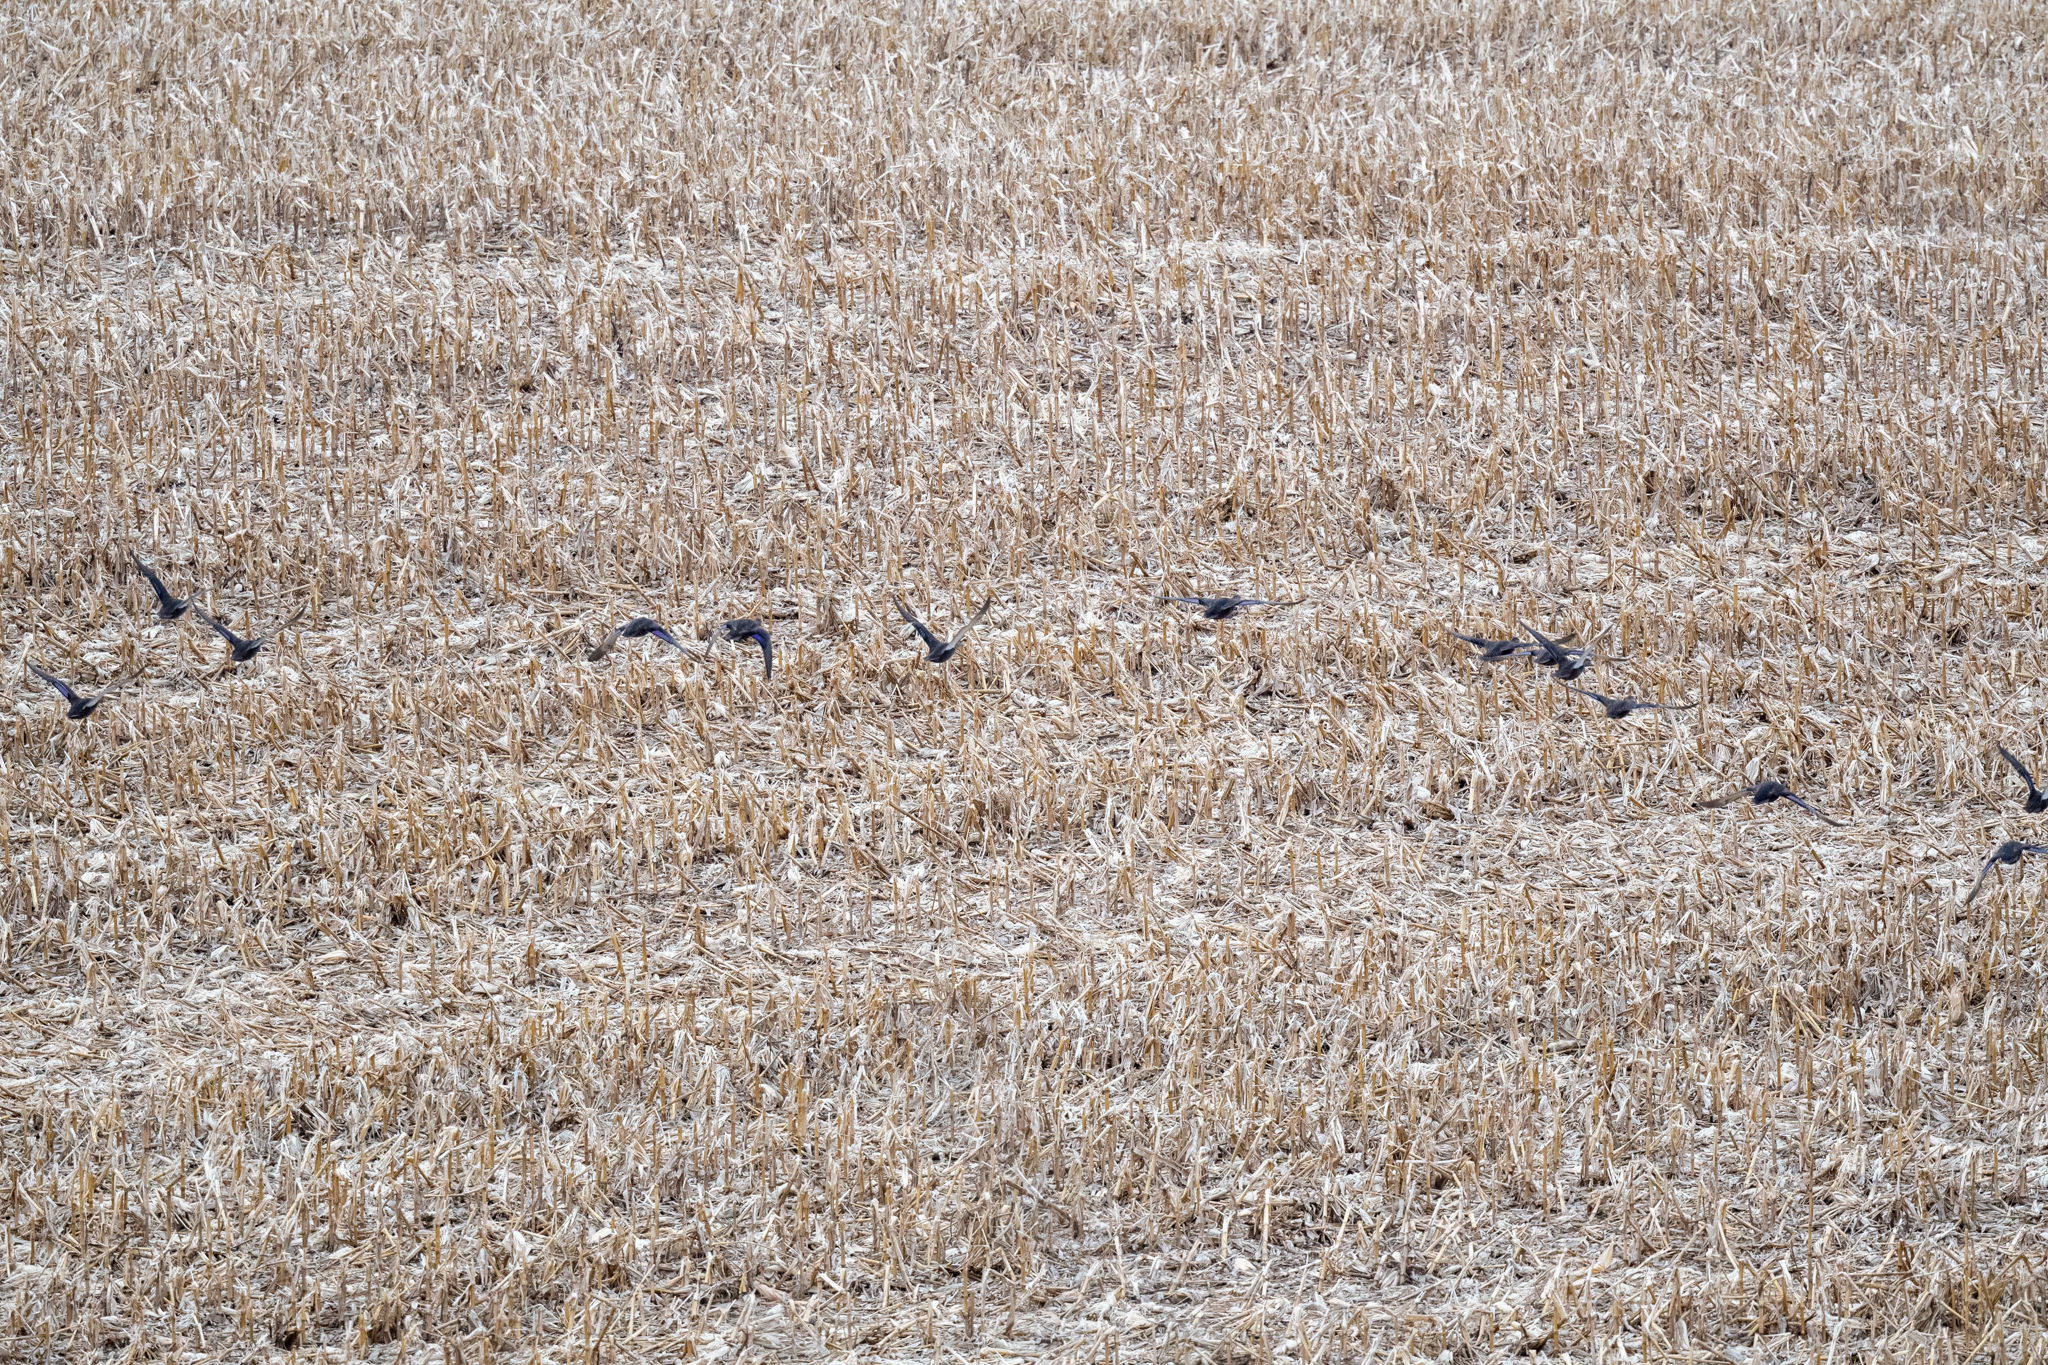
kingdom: Animalia
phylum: Chordata
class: Aves
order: Anseriformes
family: Anatidae
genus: Anas
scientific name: Anas rubripes
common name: American black duck
